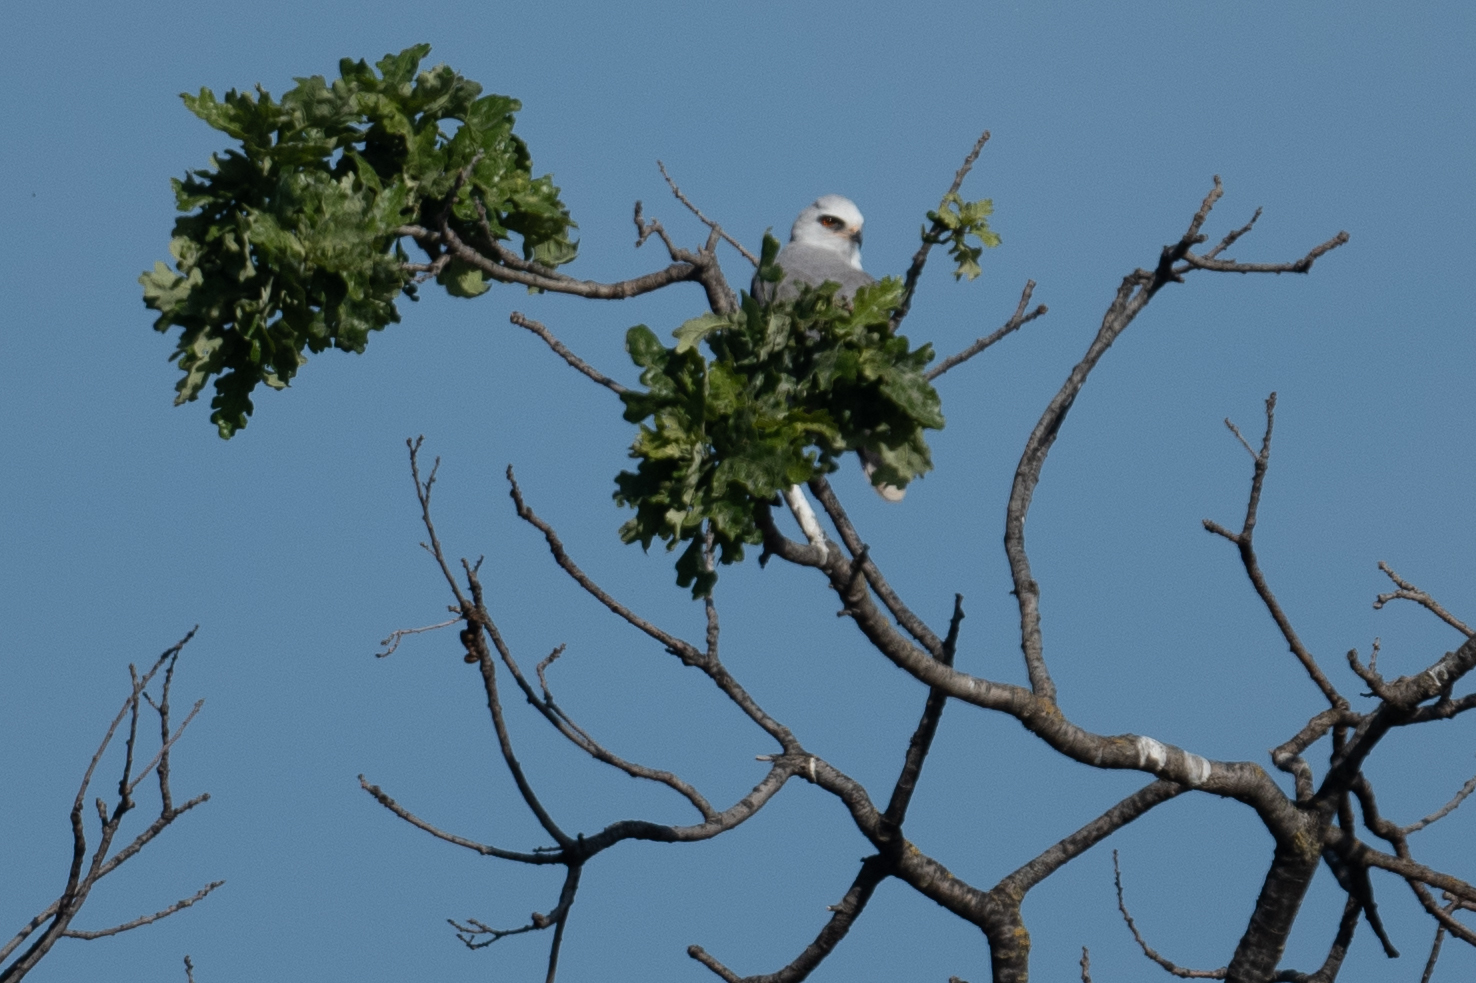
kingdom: Animalia
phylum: Chordata
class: Aves
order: Accipitriformes
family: Accipitridae
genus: Elanus
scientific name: Elanus leucurus
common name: White-tailed kite
